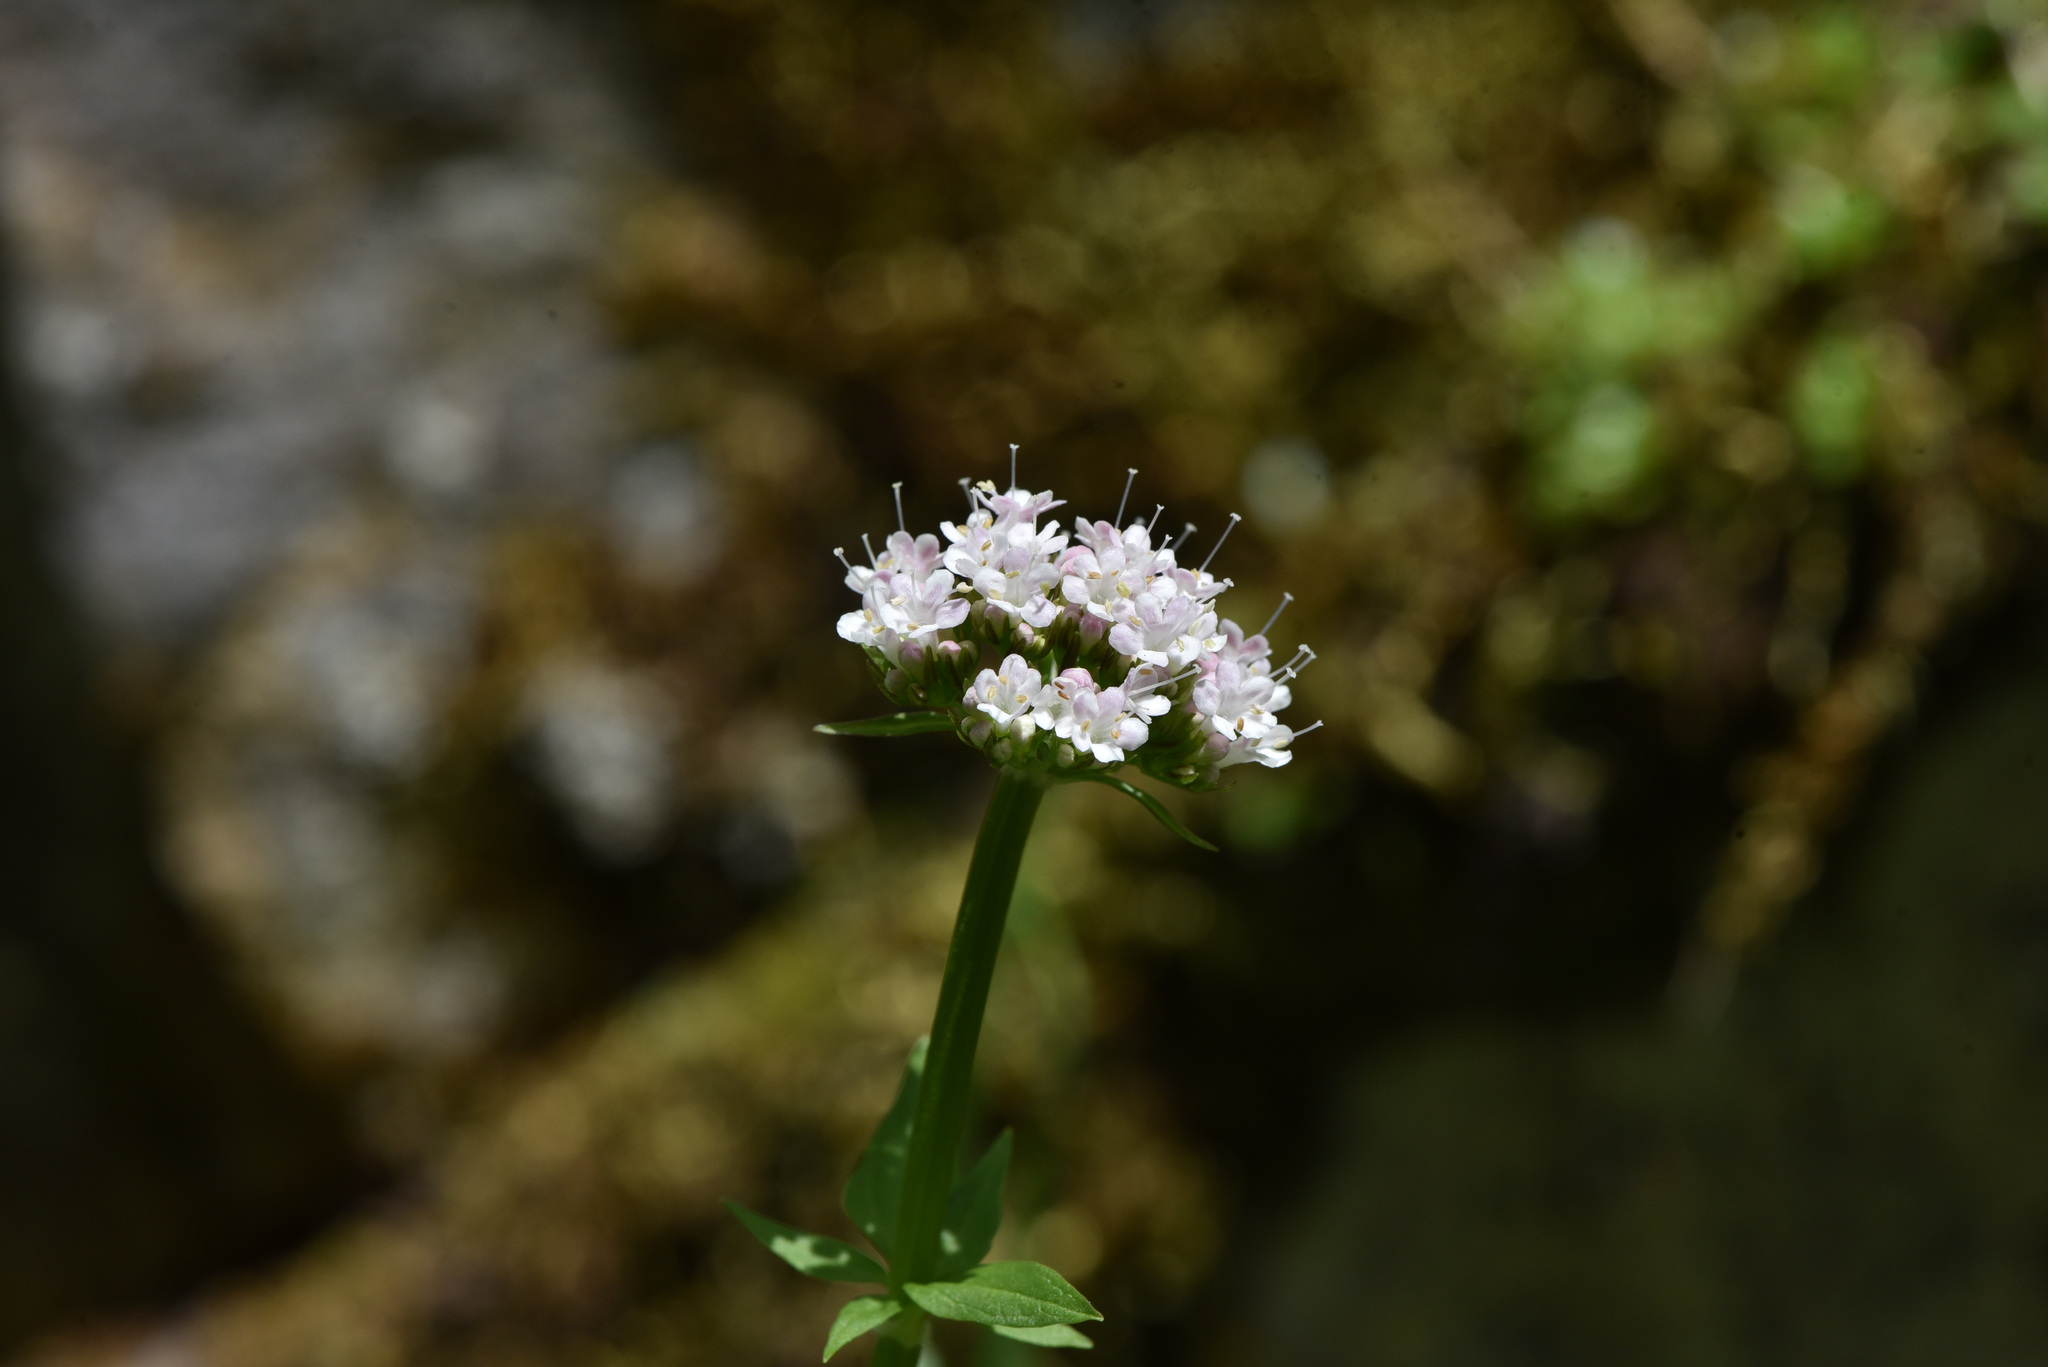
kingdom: Plantae
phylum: Tracheophyta
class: Magnoliopsida
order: Dipsacales
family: Caprifoliaceae
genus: Valeriana
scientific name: Valeriana sitchensis
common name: Pacific valerian
